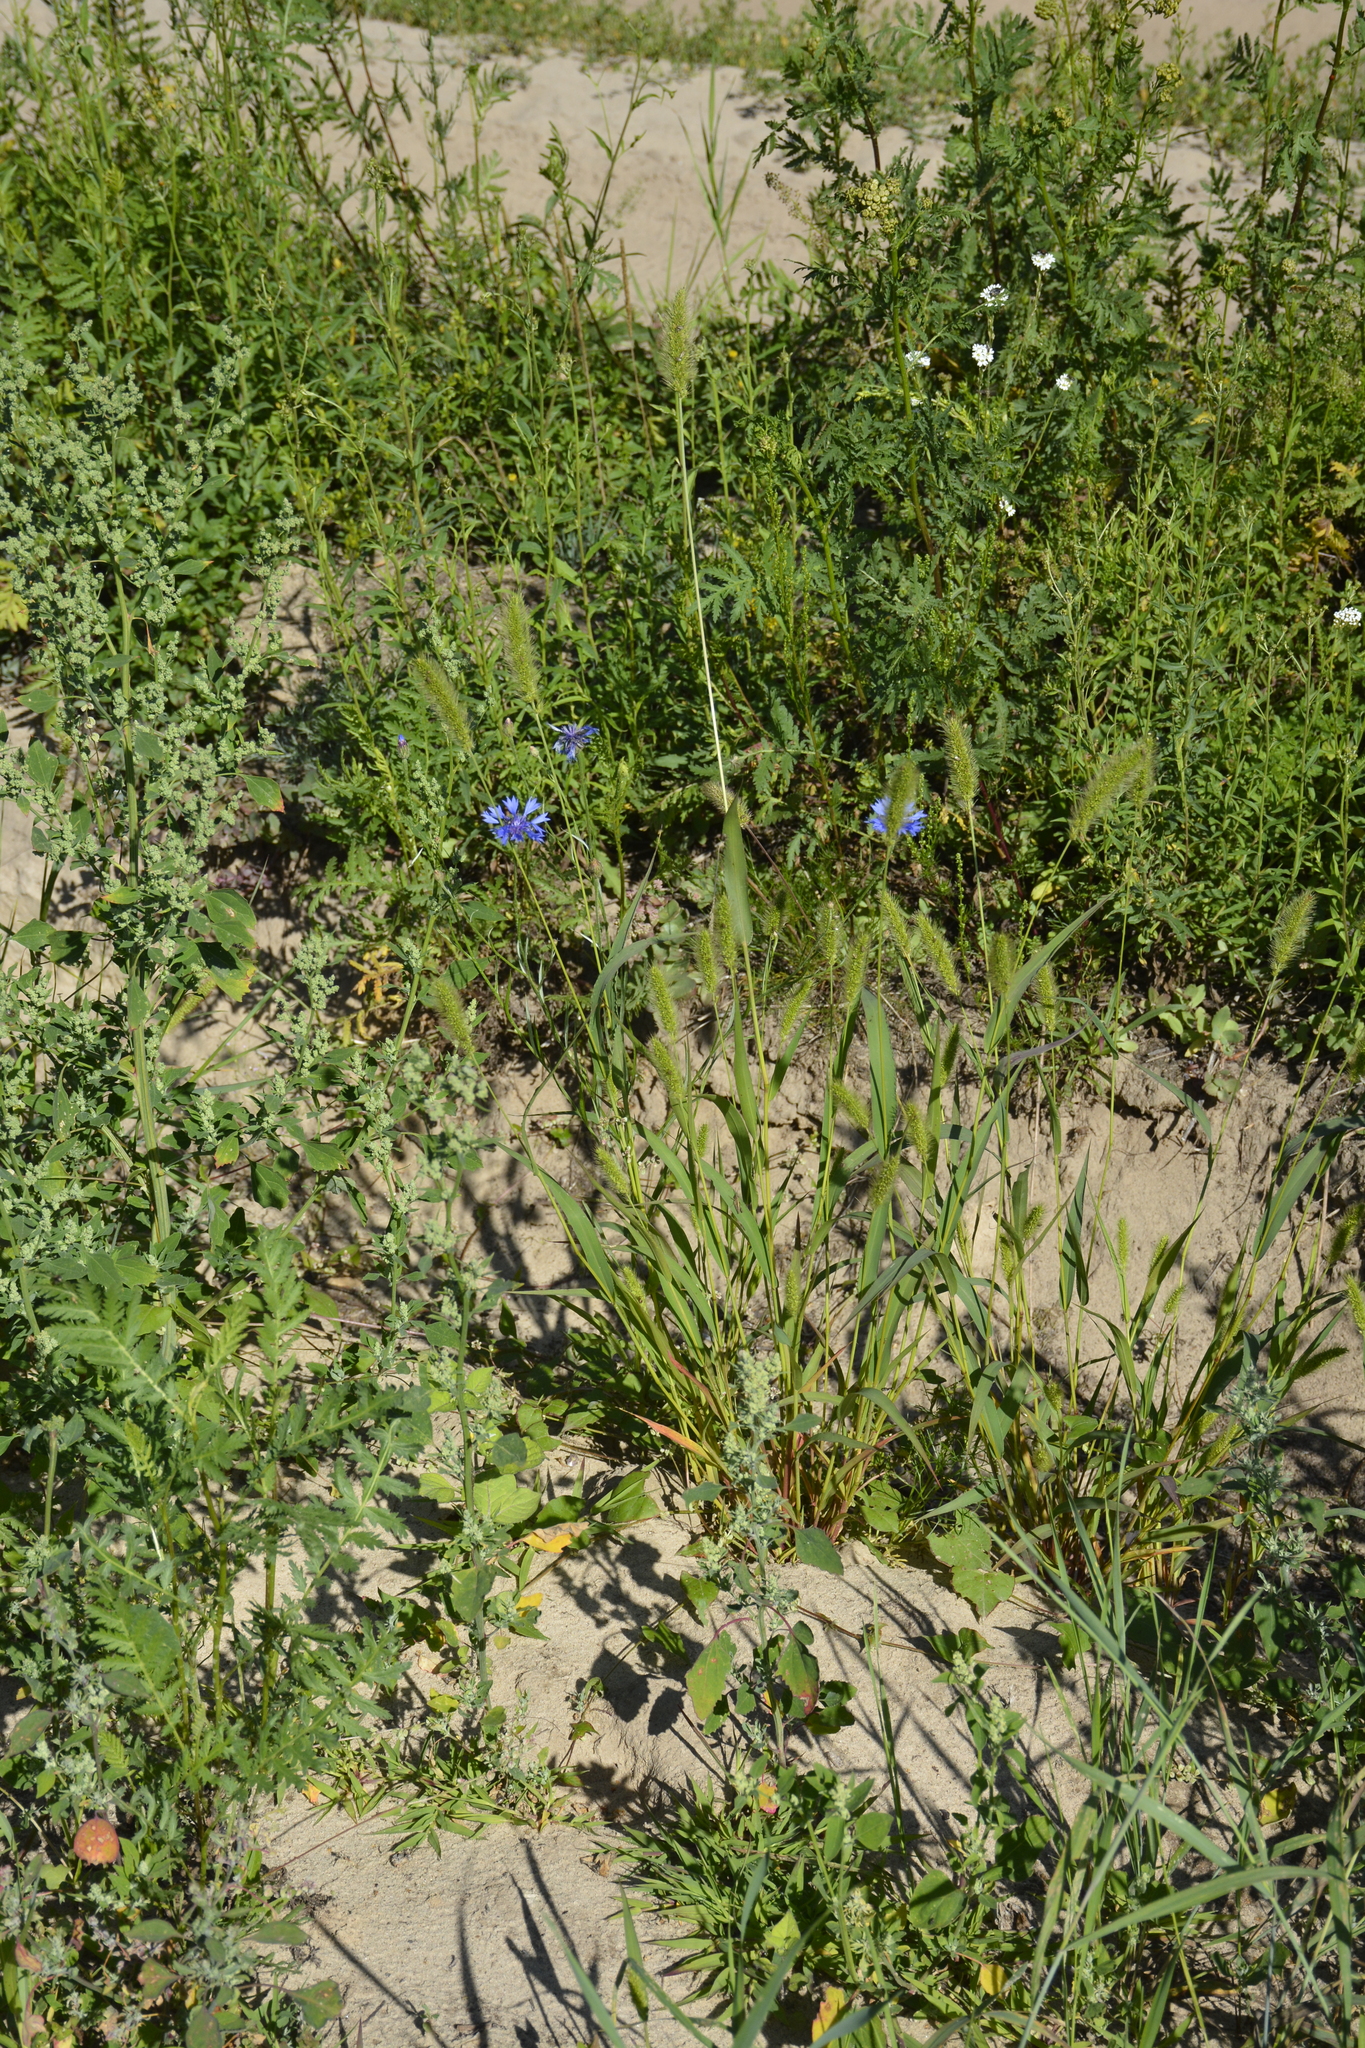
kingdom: Plantae
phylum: Tracheophyta
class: Liliopsida
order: Poales
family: Poaceae
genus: Setaria
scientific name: Setaria viridis
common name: Green bristlegrass
